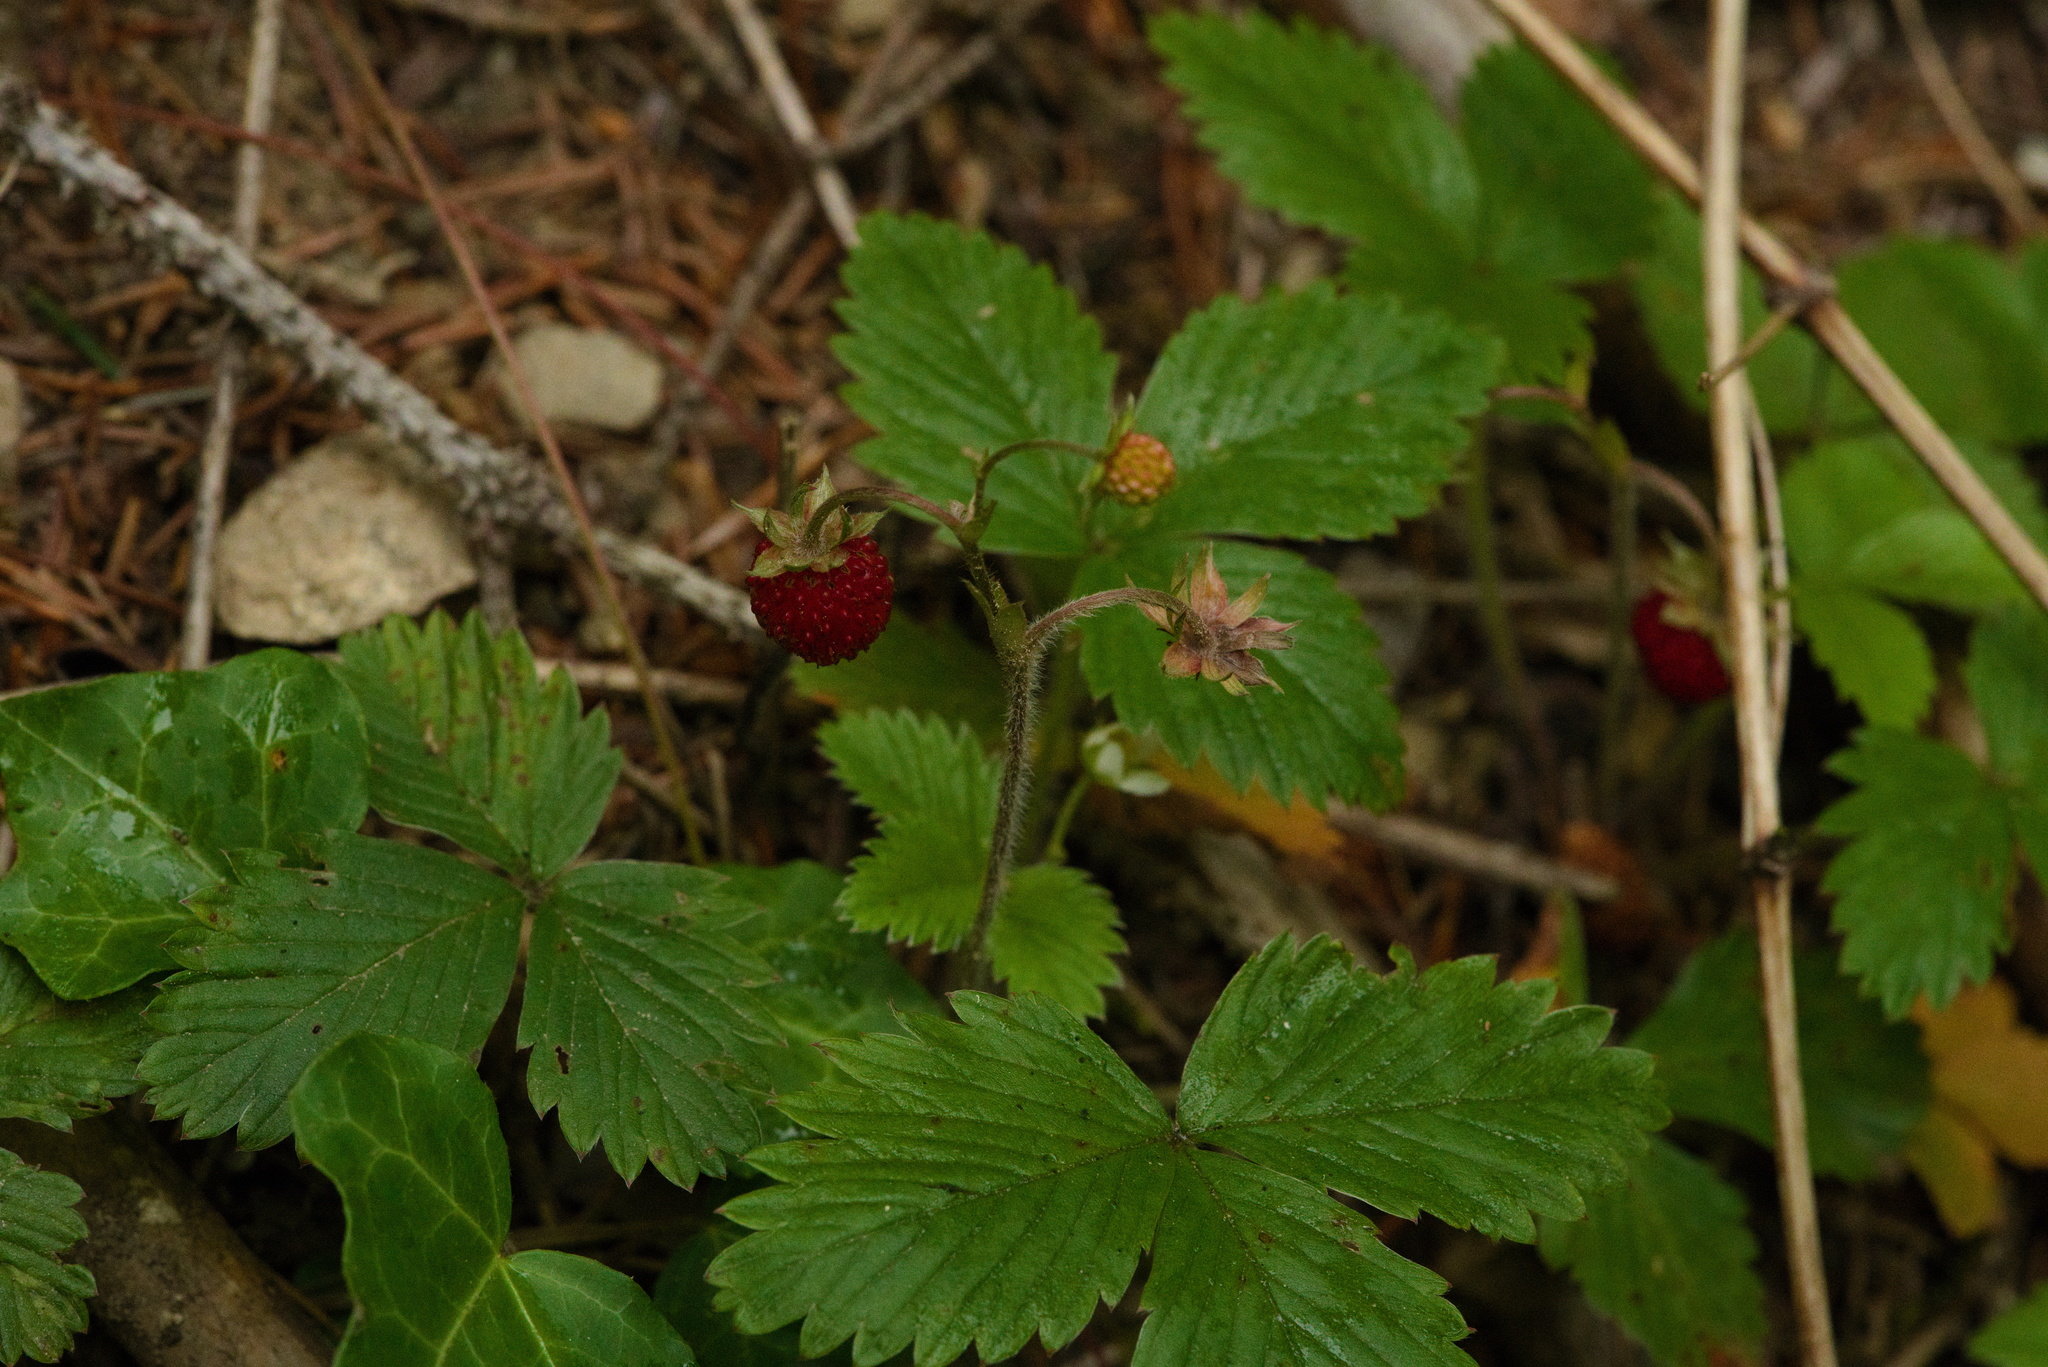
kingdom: Plantae
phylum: Tracheophyta
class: Magnoliopsida
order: Rosales
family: Rosaceae
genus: Fragaria
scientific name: Fragaria vesca
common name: Wild strawberry
